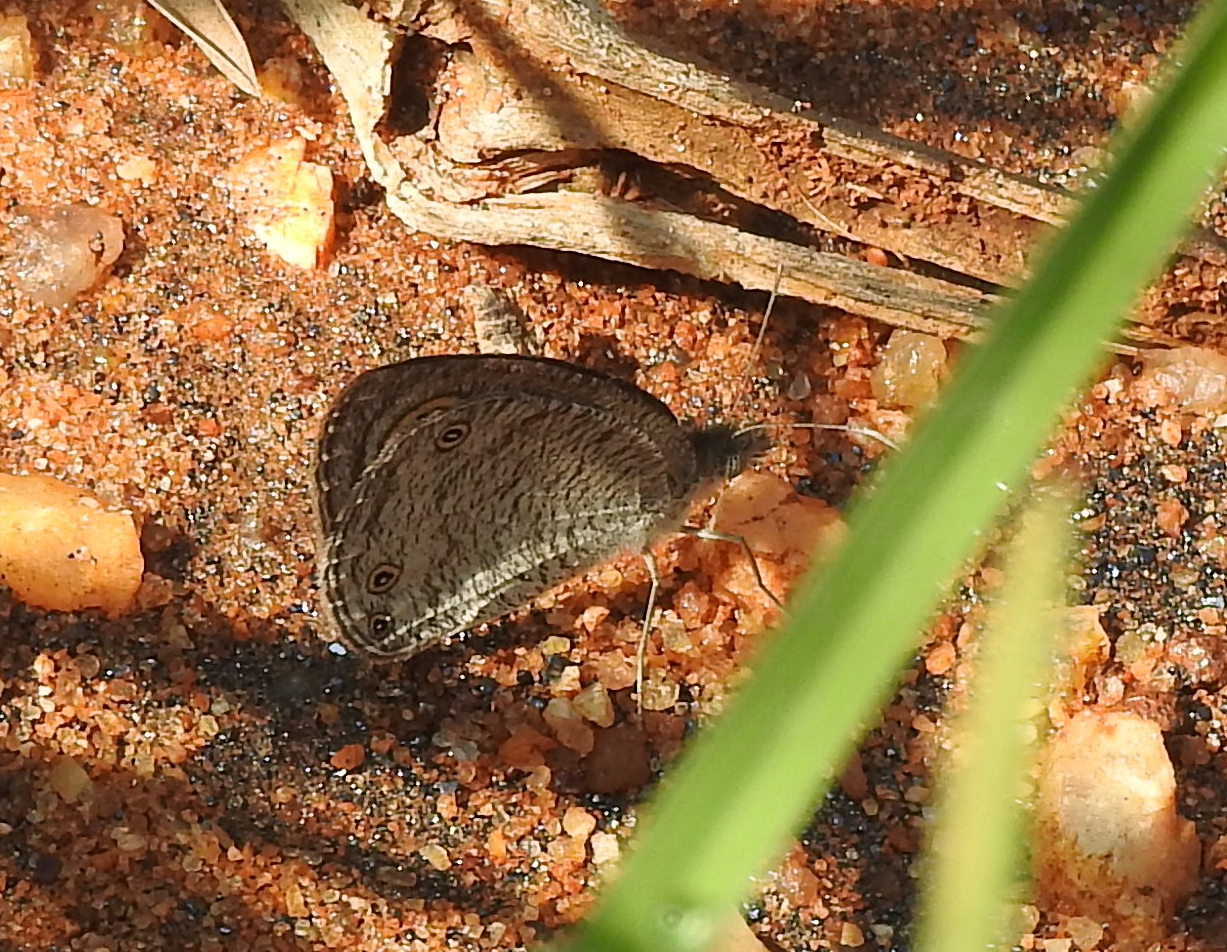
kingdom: Animalia
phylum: Arthropoda
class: Insecta
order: Lepidoptera
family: Nymphalidae
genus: Ypthima
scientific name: Ypthima asterope
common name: African ringlet
